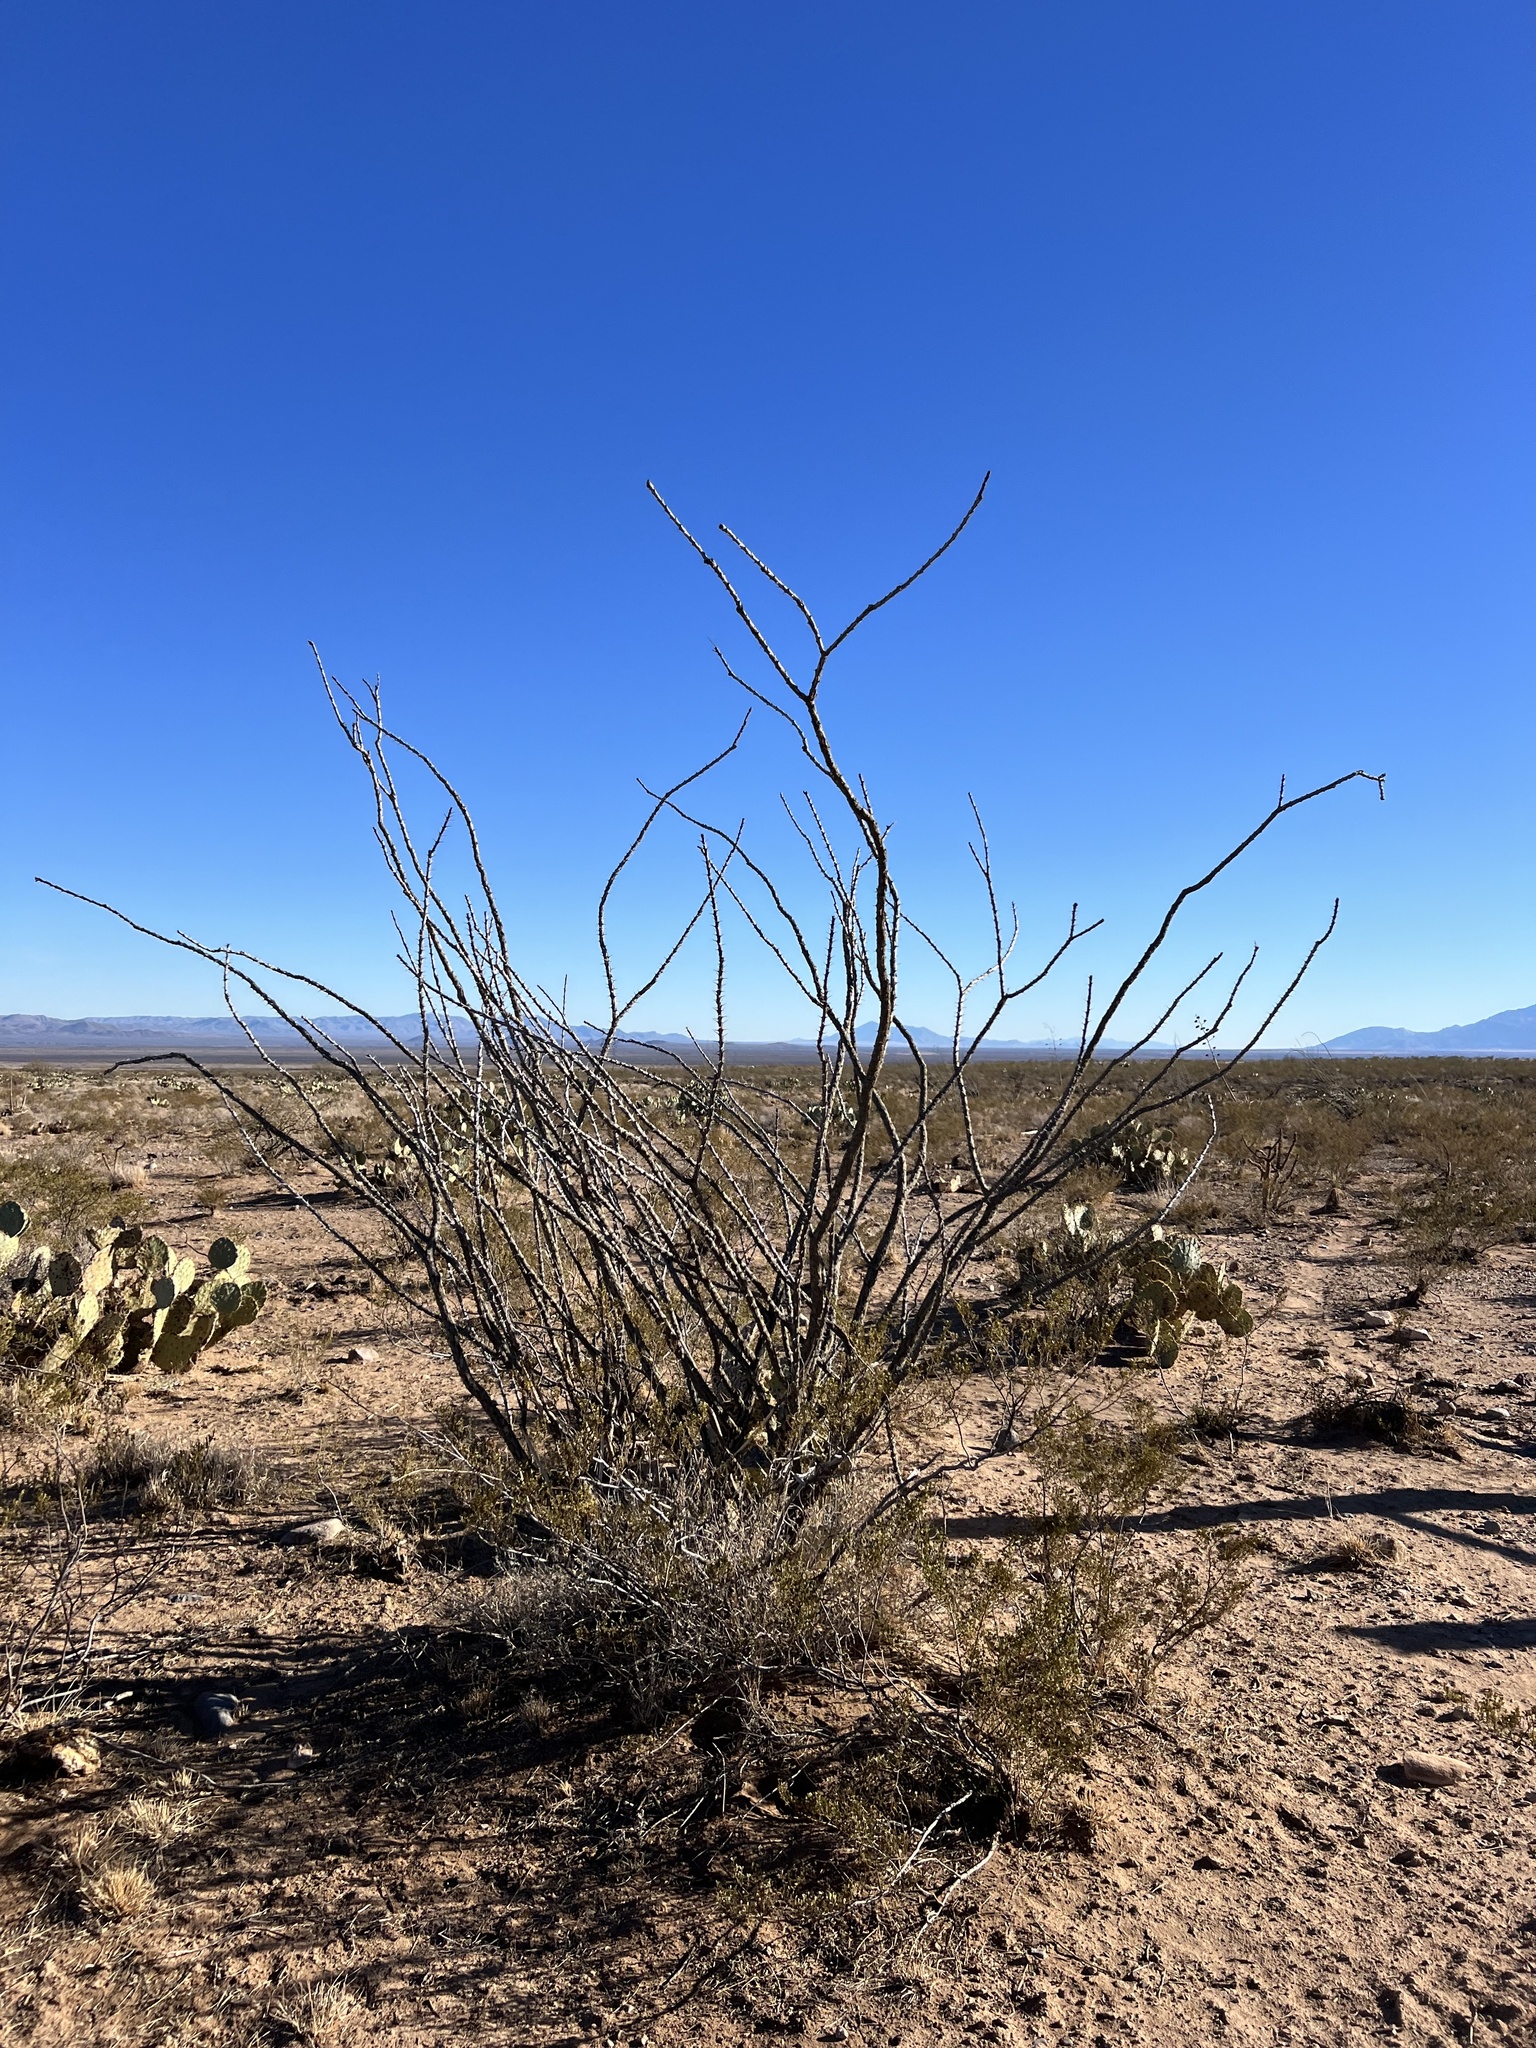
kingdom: Plantae
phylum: Tracheophyta
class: Magnoliopsida
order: Ericales
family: Fouquieriaceae
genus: Fouquieria
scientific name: Fouquieria splendens
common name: Vine-cactus
